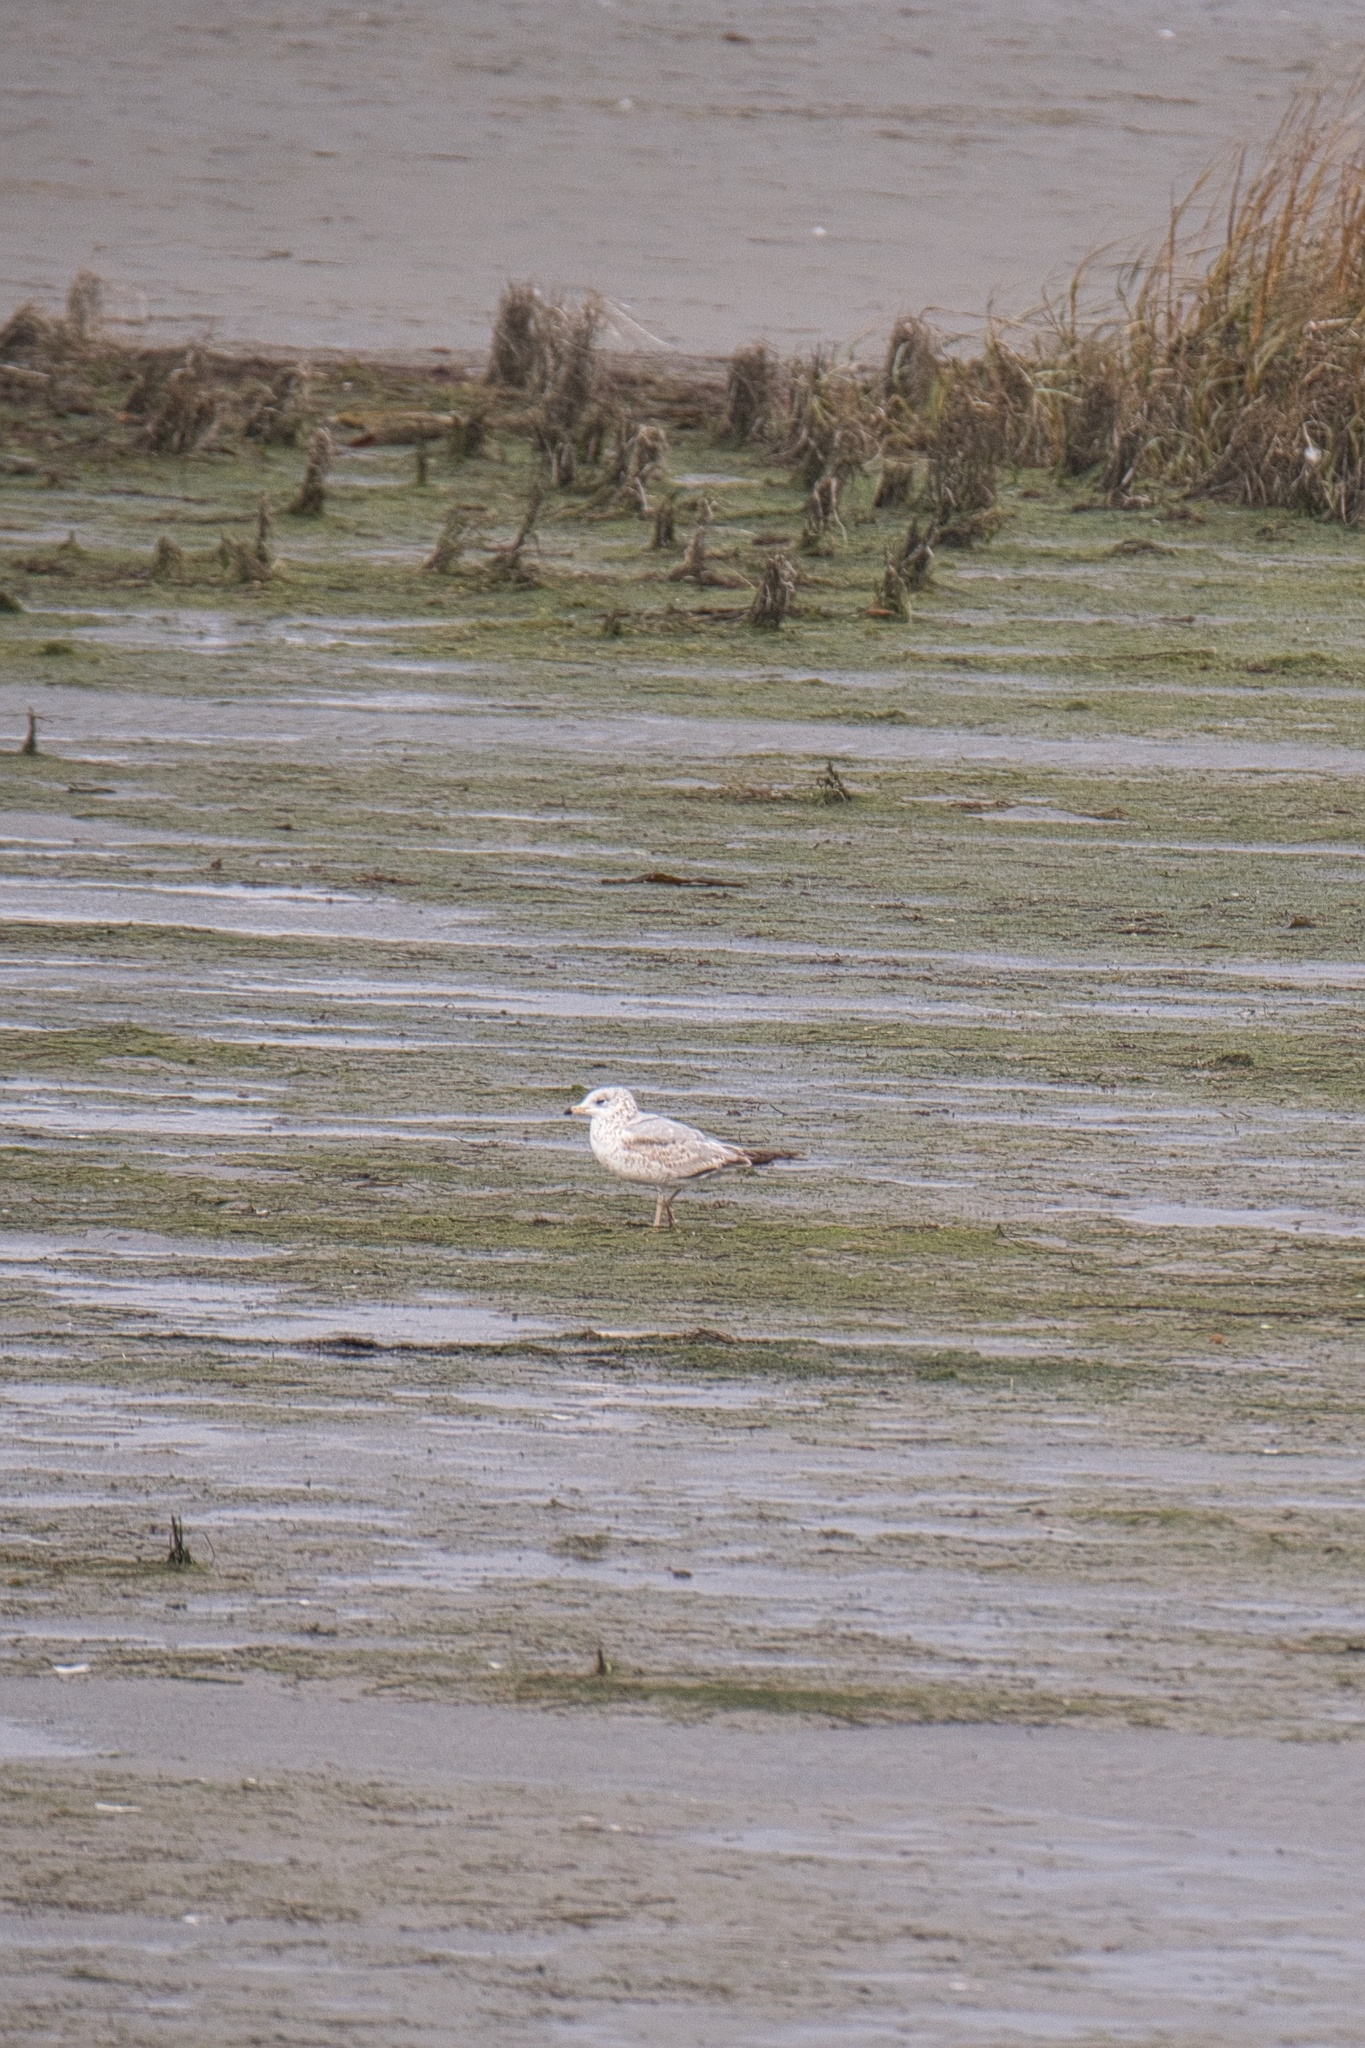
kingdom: Animalia
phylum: Chordata
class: Aves
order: Charadriiformes
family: Laridae
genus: Larus
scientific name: Larus delawarensis
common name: Ring-billed gull
